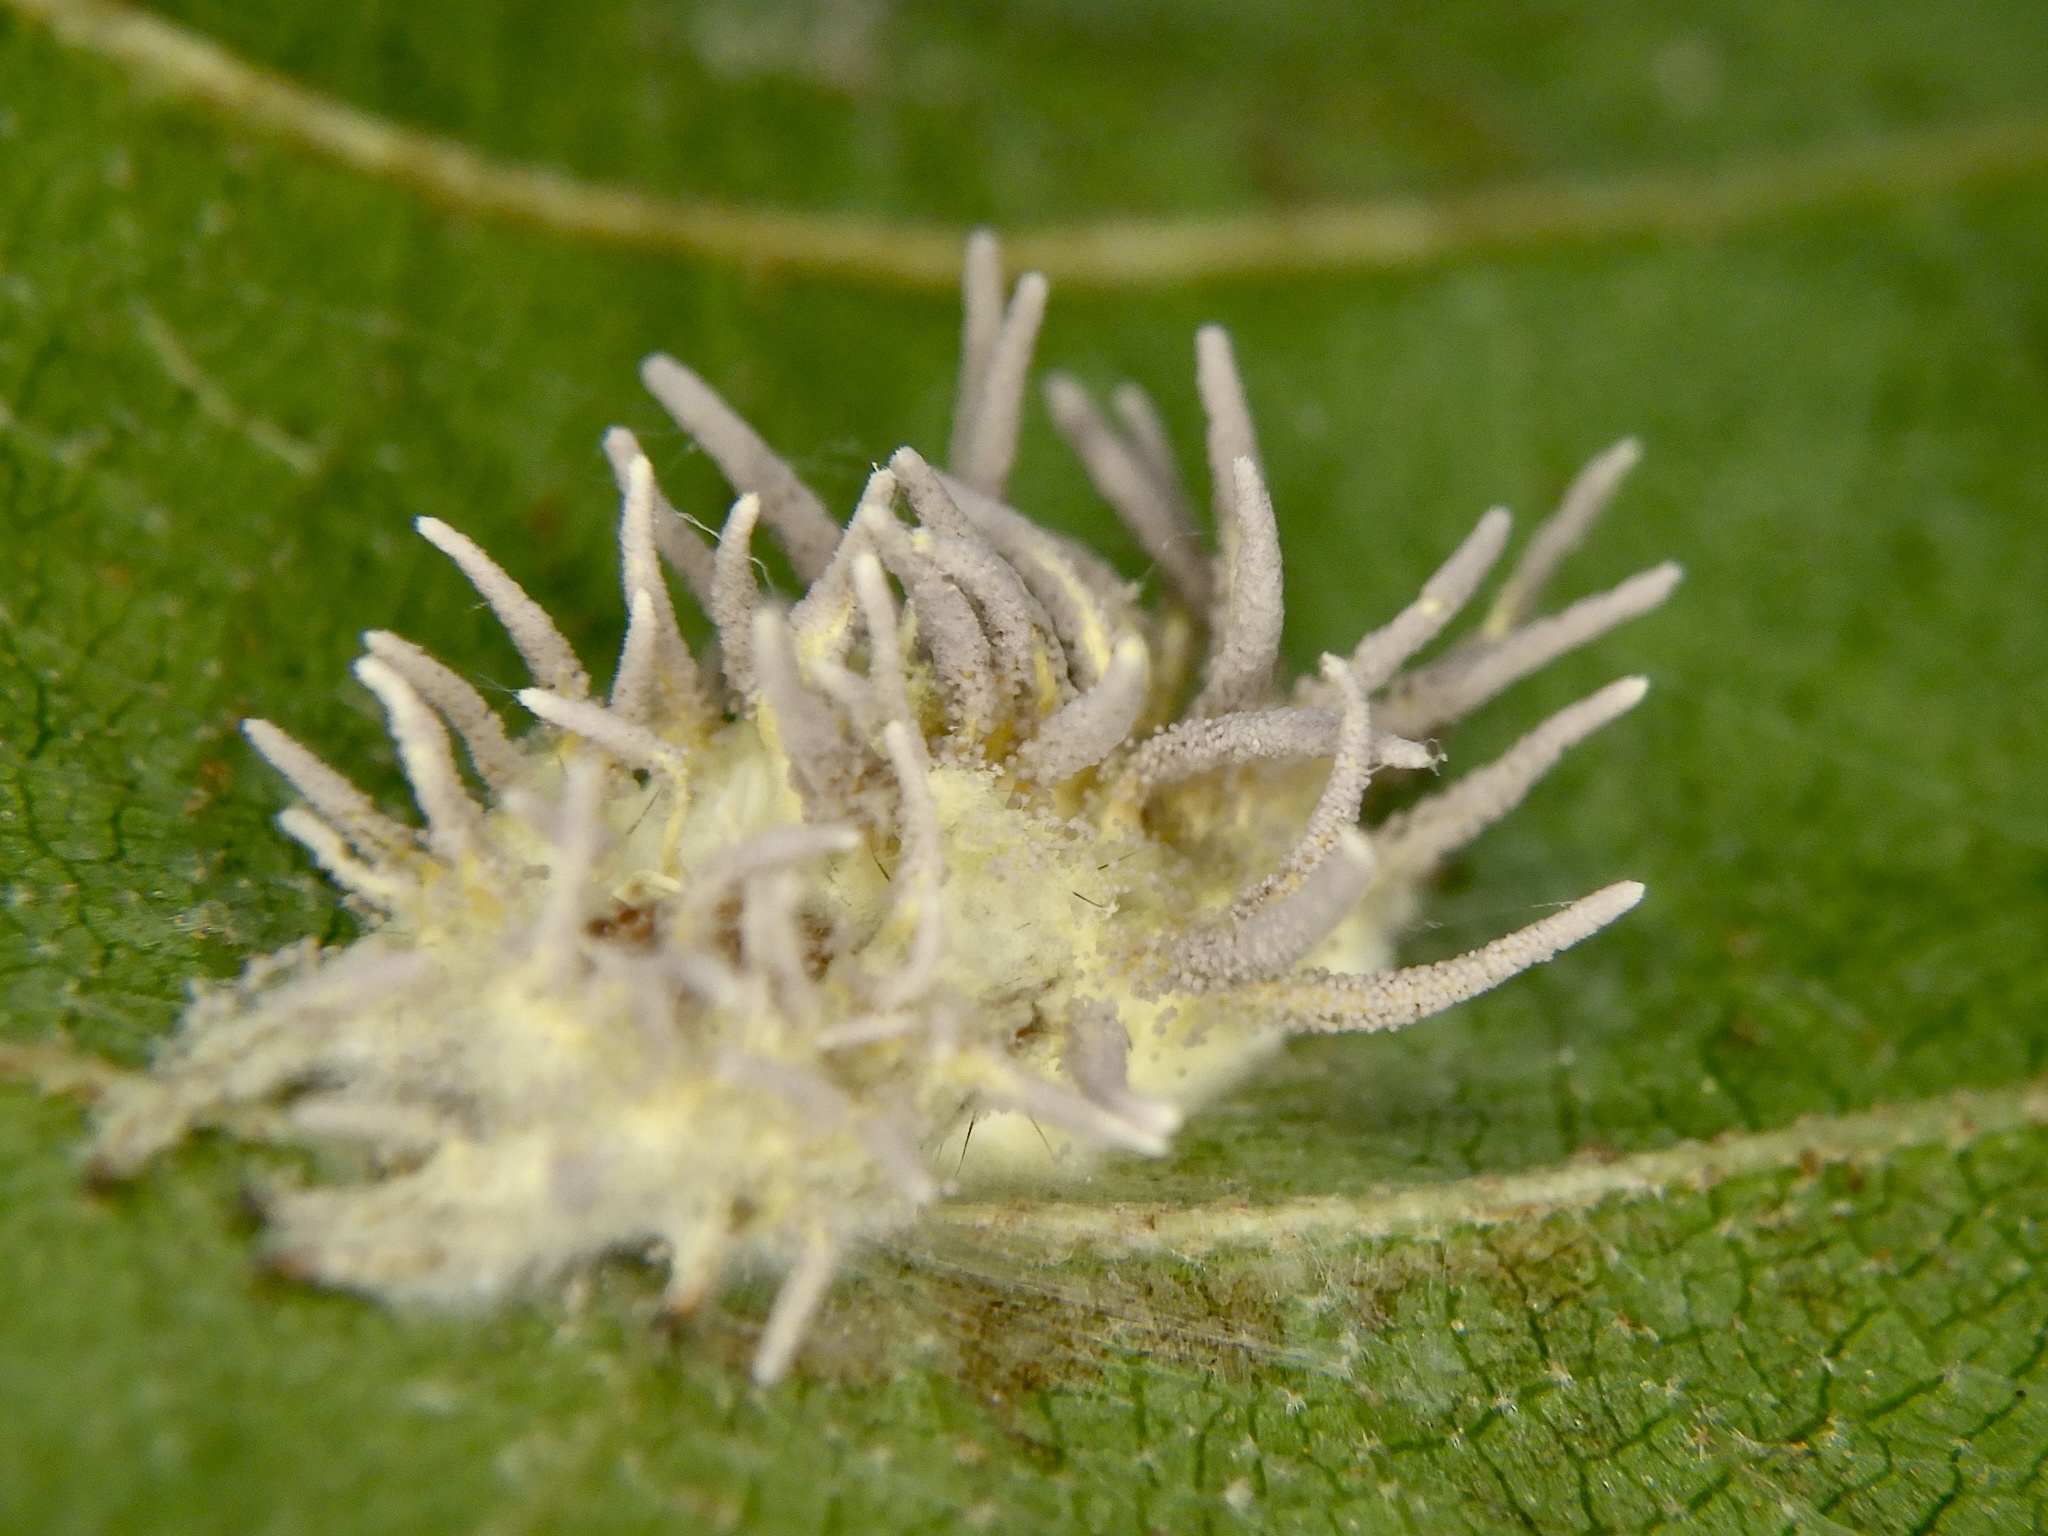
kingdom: Fungi
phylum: Ascomycota
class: Sordariomycetes
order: Hypocreales
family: Cordycipitaceae
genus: Gibellula
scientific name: Gibellula aranearum
